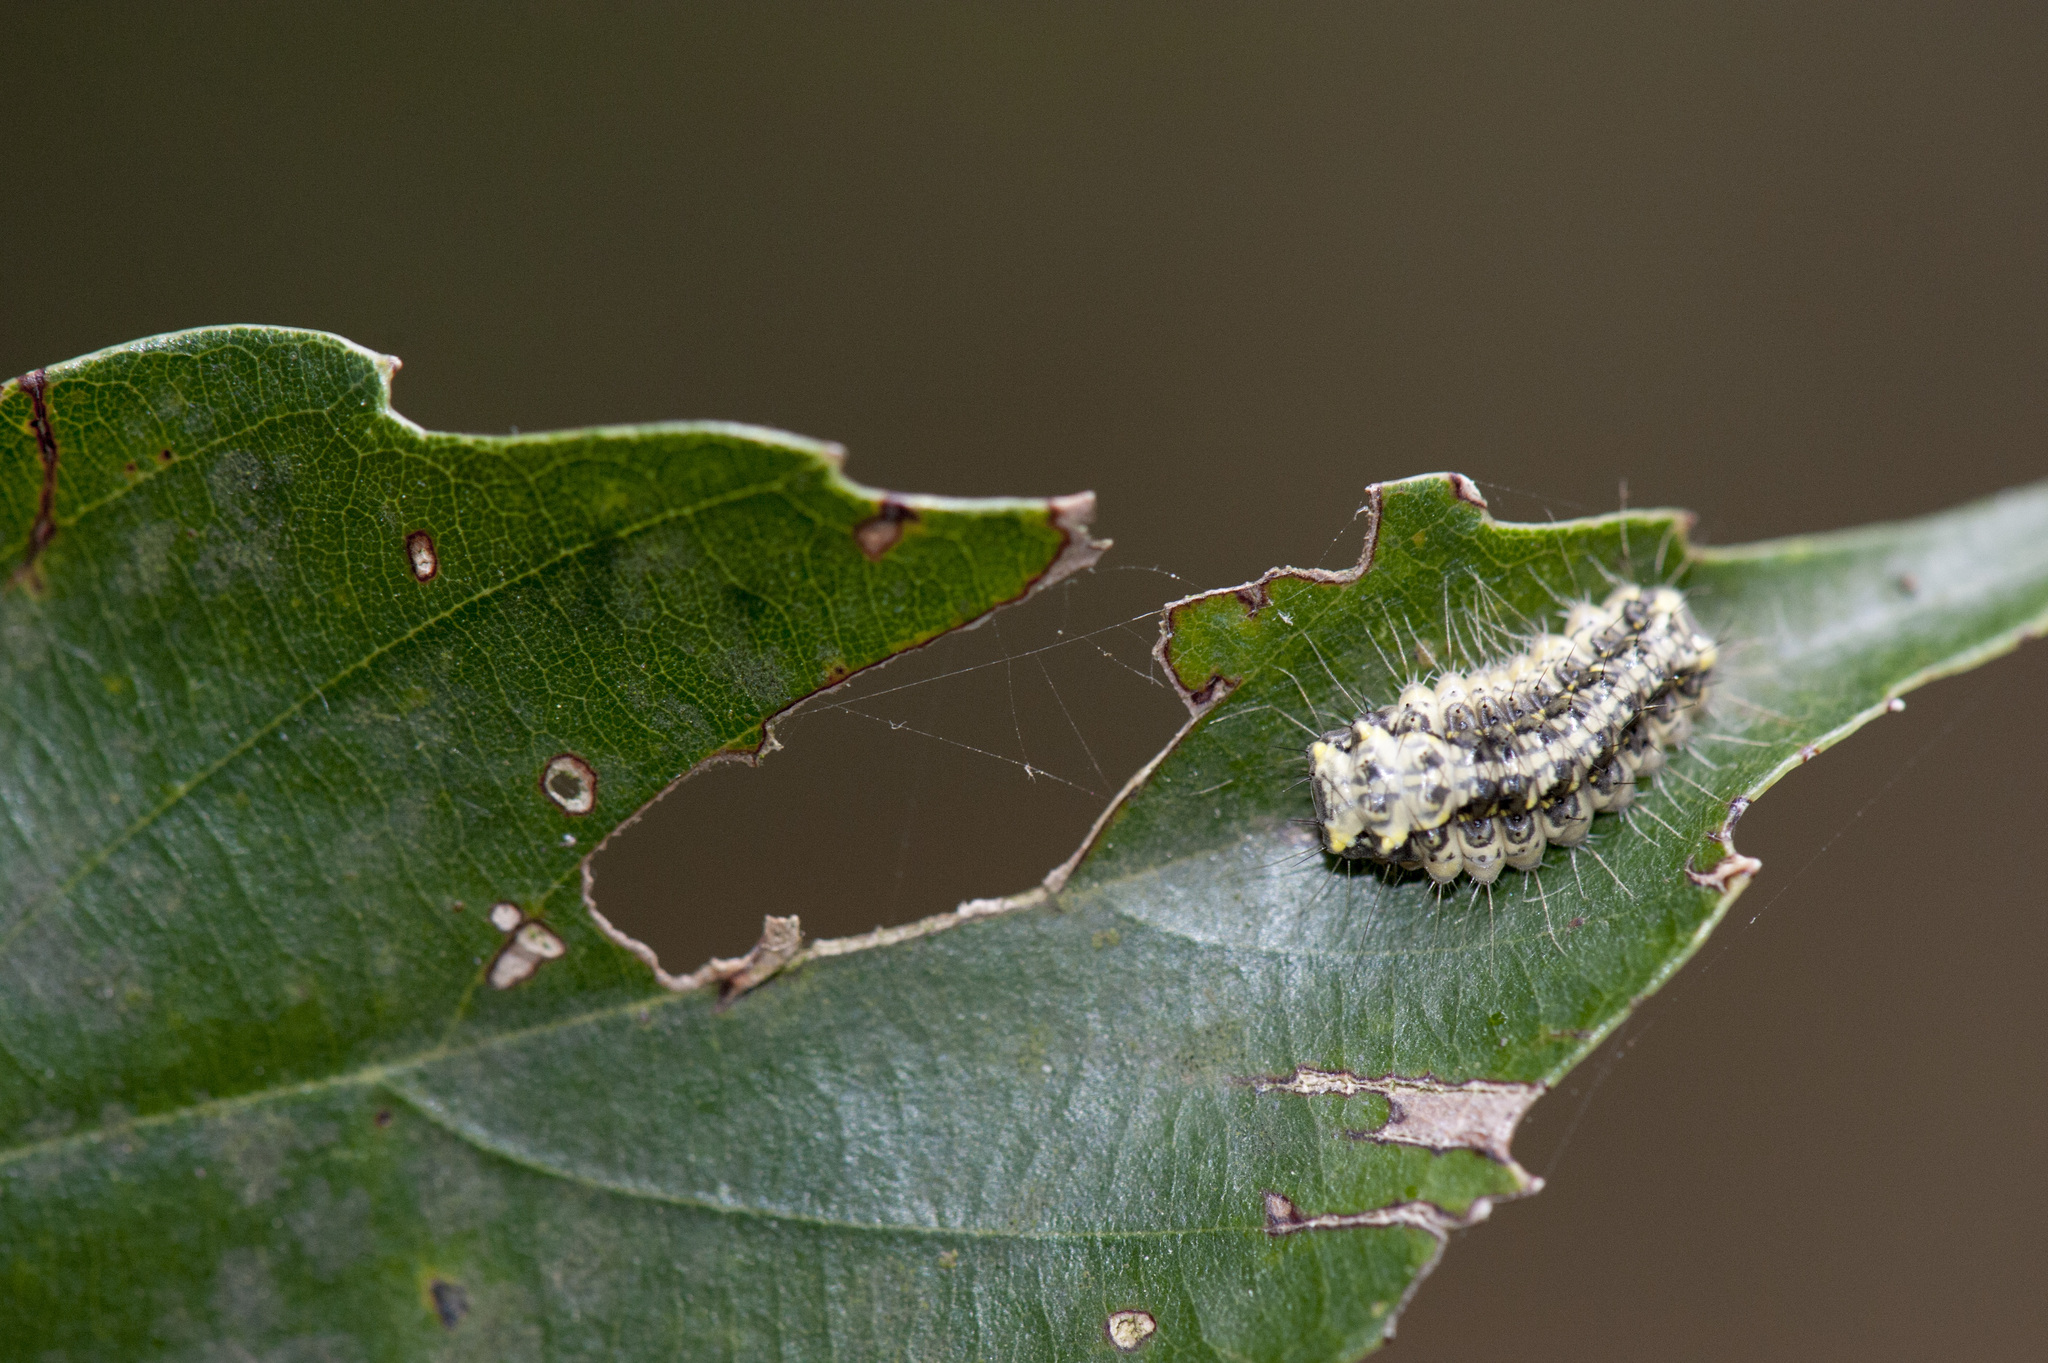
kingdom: Animalia
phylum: Arthropoda
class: Insecta
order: Lepidoptera
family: Zygaenidae
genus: Paragalope
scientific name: Paragalope trimacula
